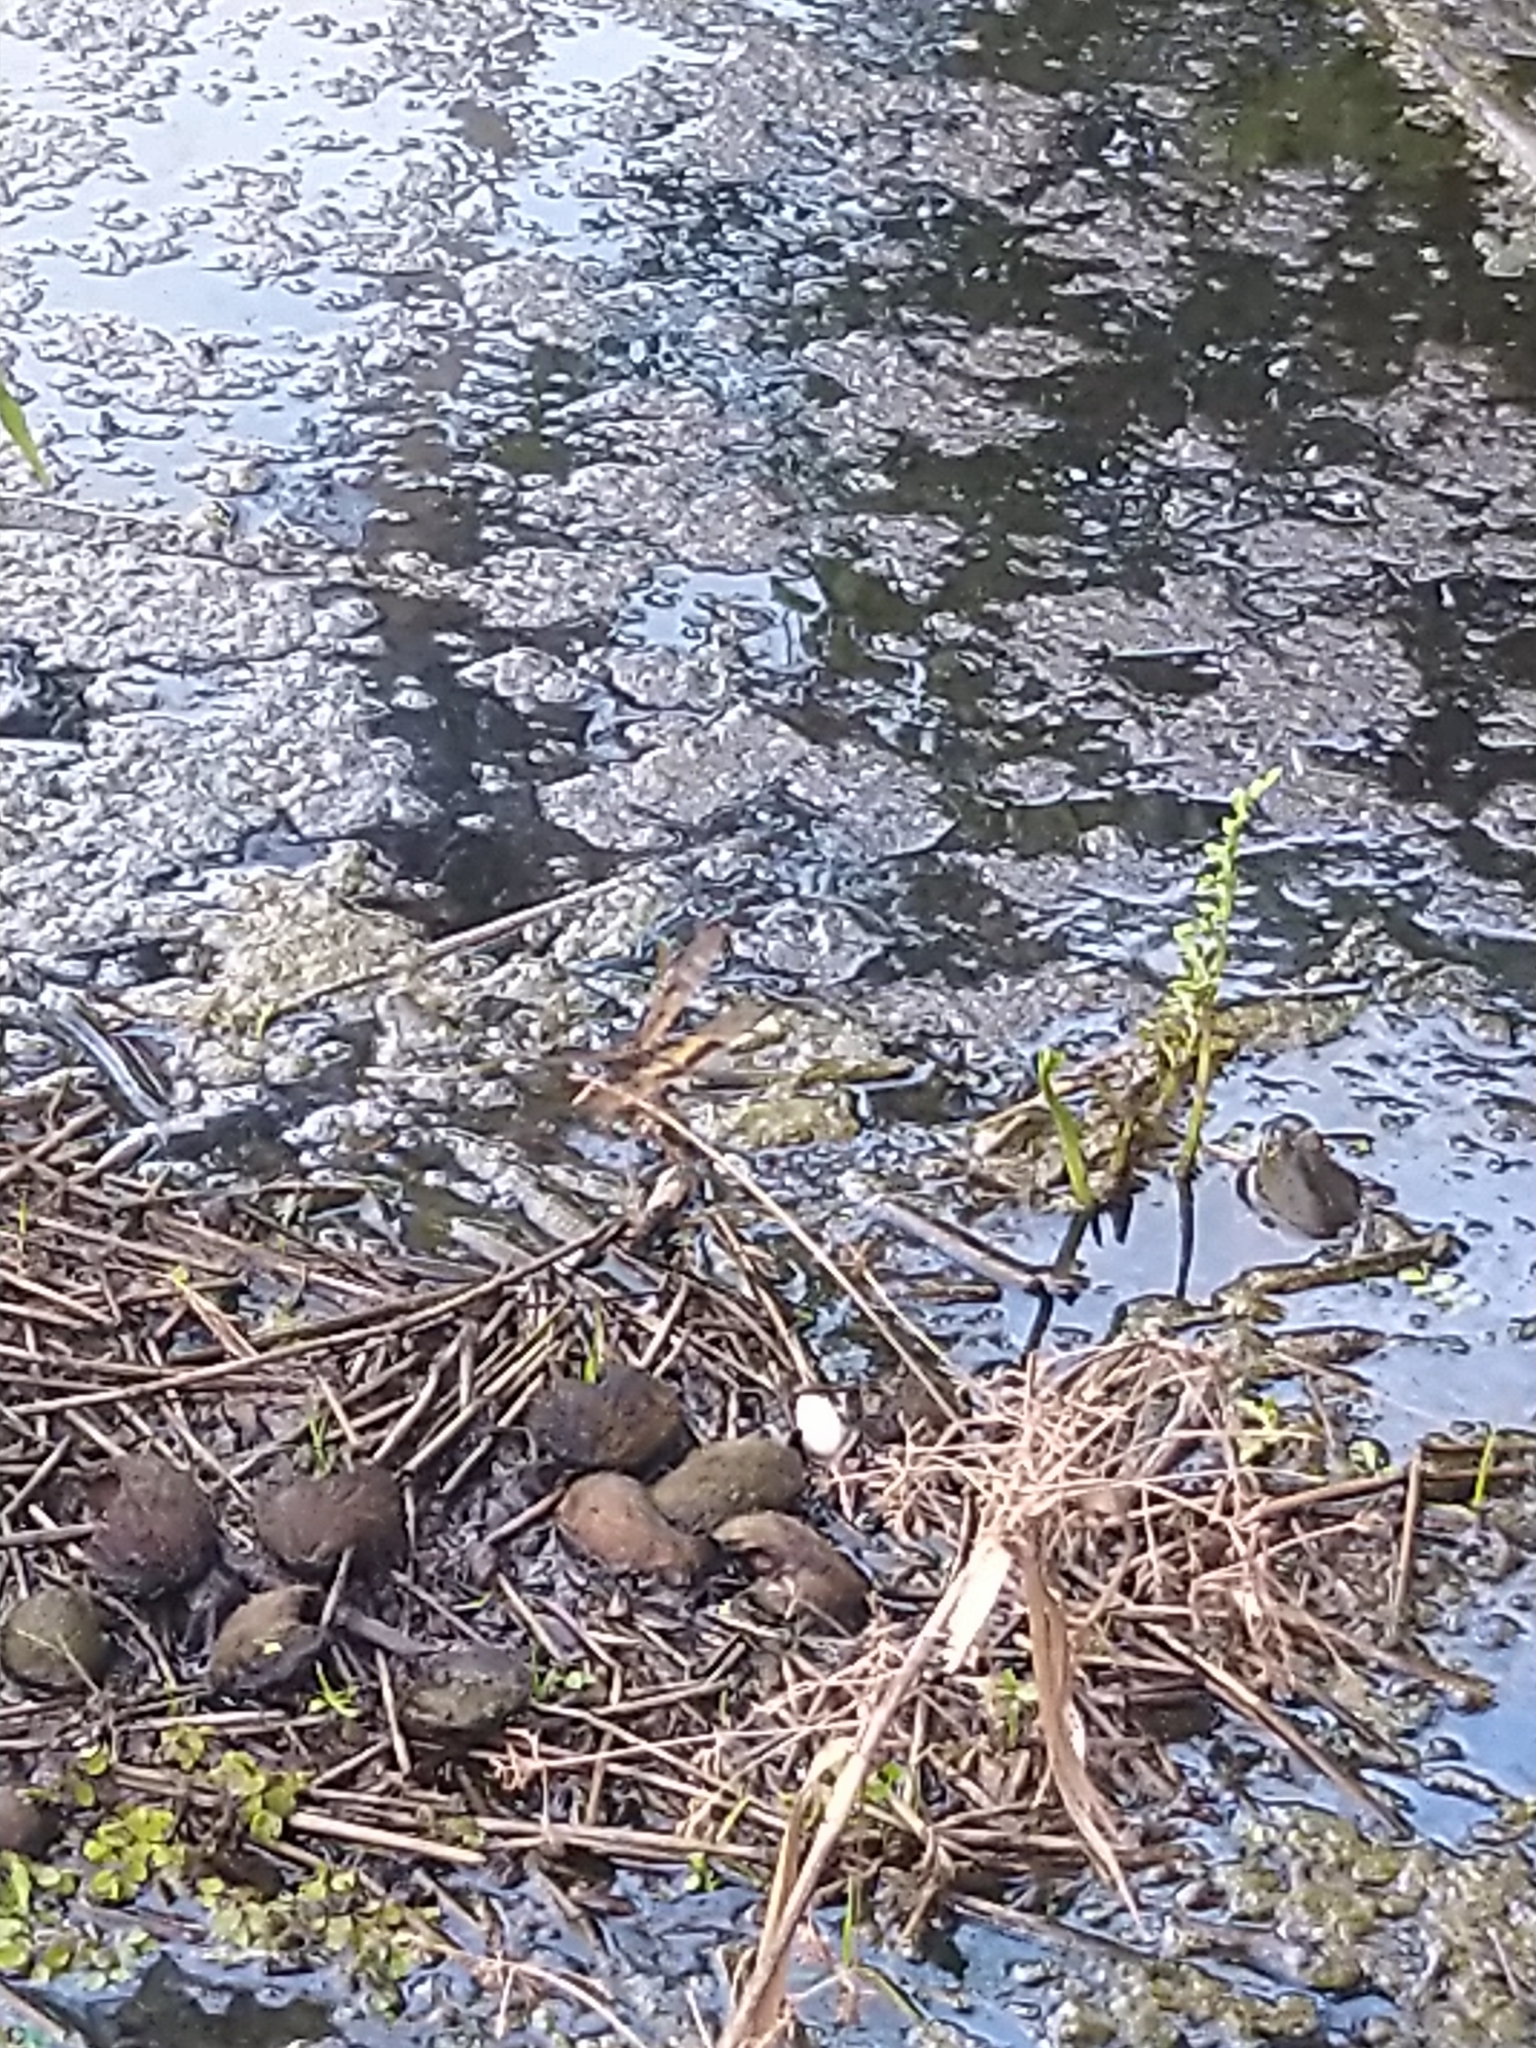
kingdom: Animalia
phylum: Arthropoda
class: Insecta
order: Odonata
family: Libellulidae
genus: Rhyothemis
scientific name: Rhyothemis variegata
